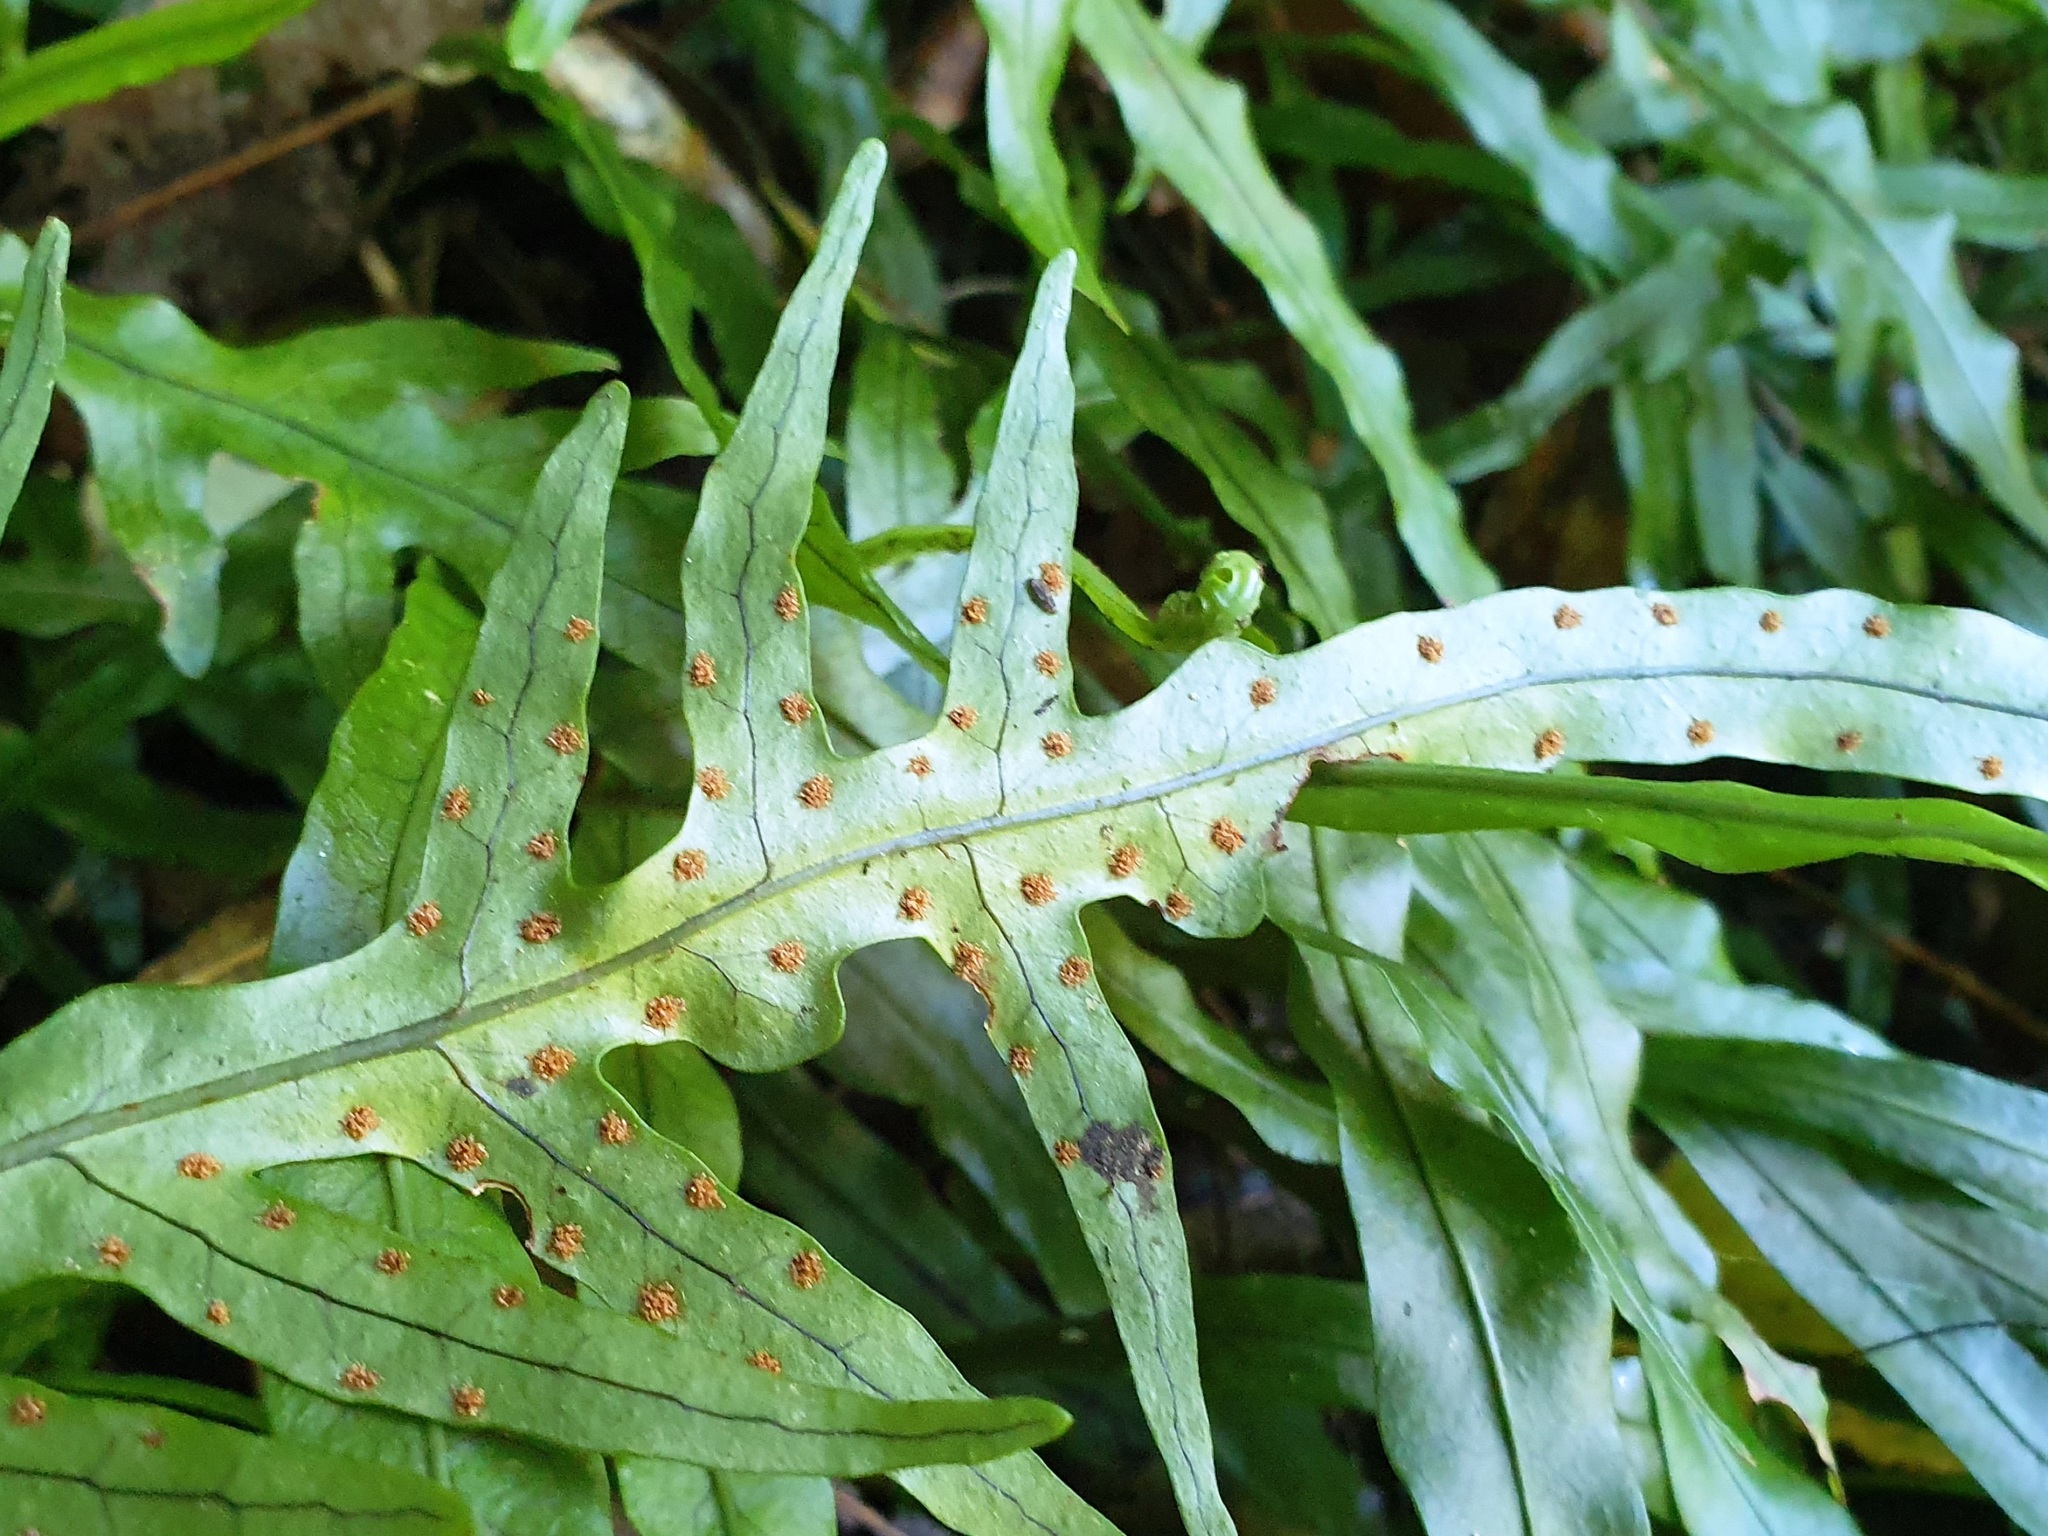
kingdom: Plantae
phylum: Tracheophyta
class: Polypodiopsida
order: Polypodiales
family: Polypodiaceae
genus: Lecanopteris
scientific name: Lecanopteris scandens
